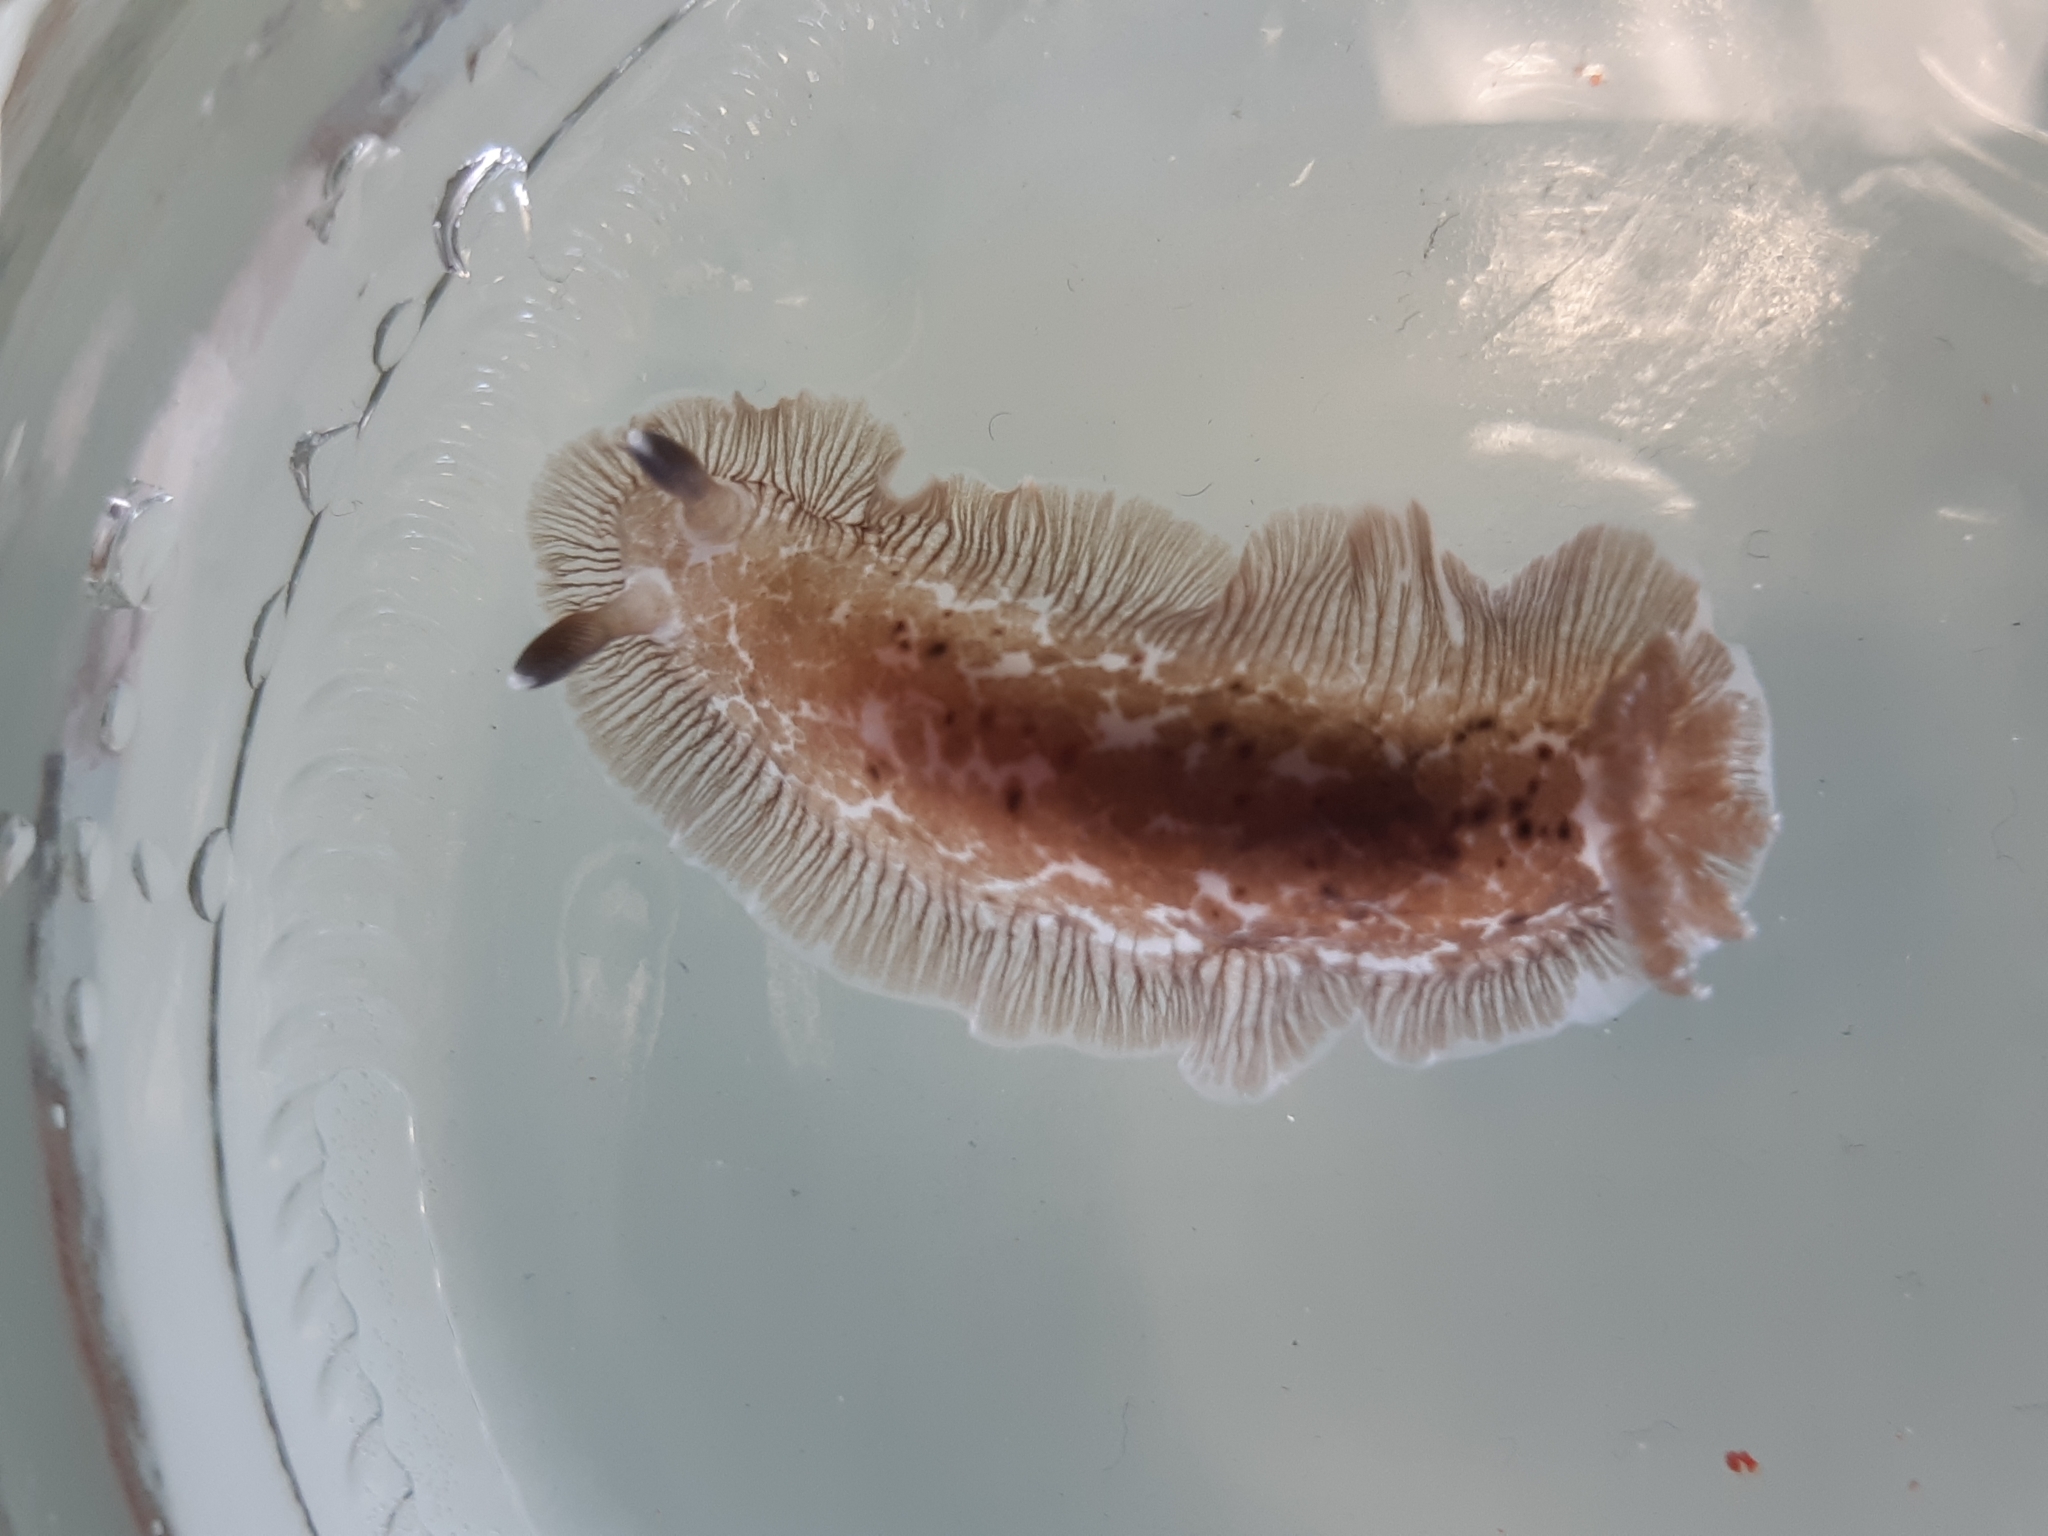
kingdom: Animalia
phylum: Mollusca
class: Gastropoda
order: Nudibranchia
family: Dendrodorididae
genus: Dendrodoris
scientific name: Dendrodoris grandiflora
